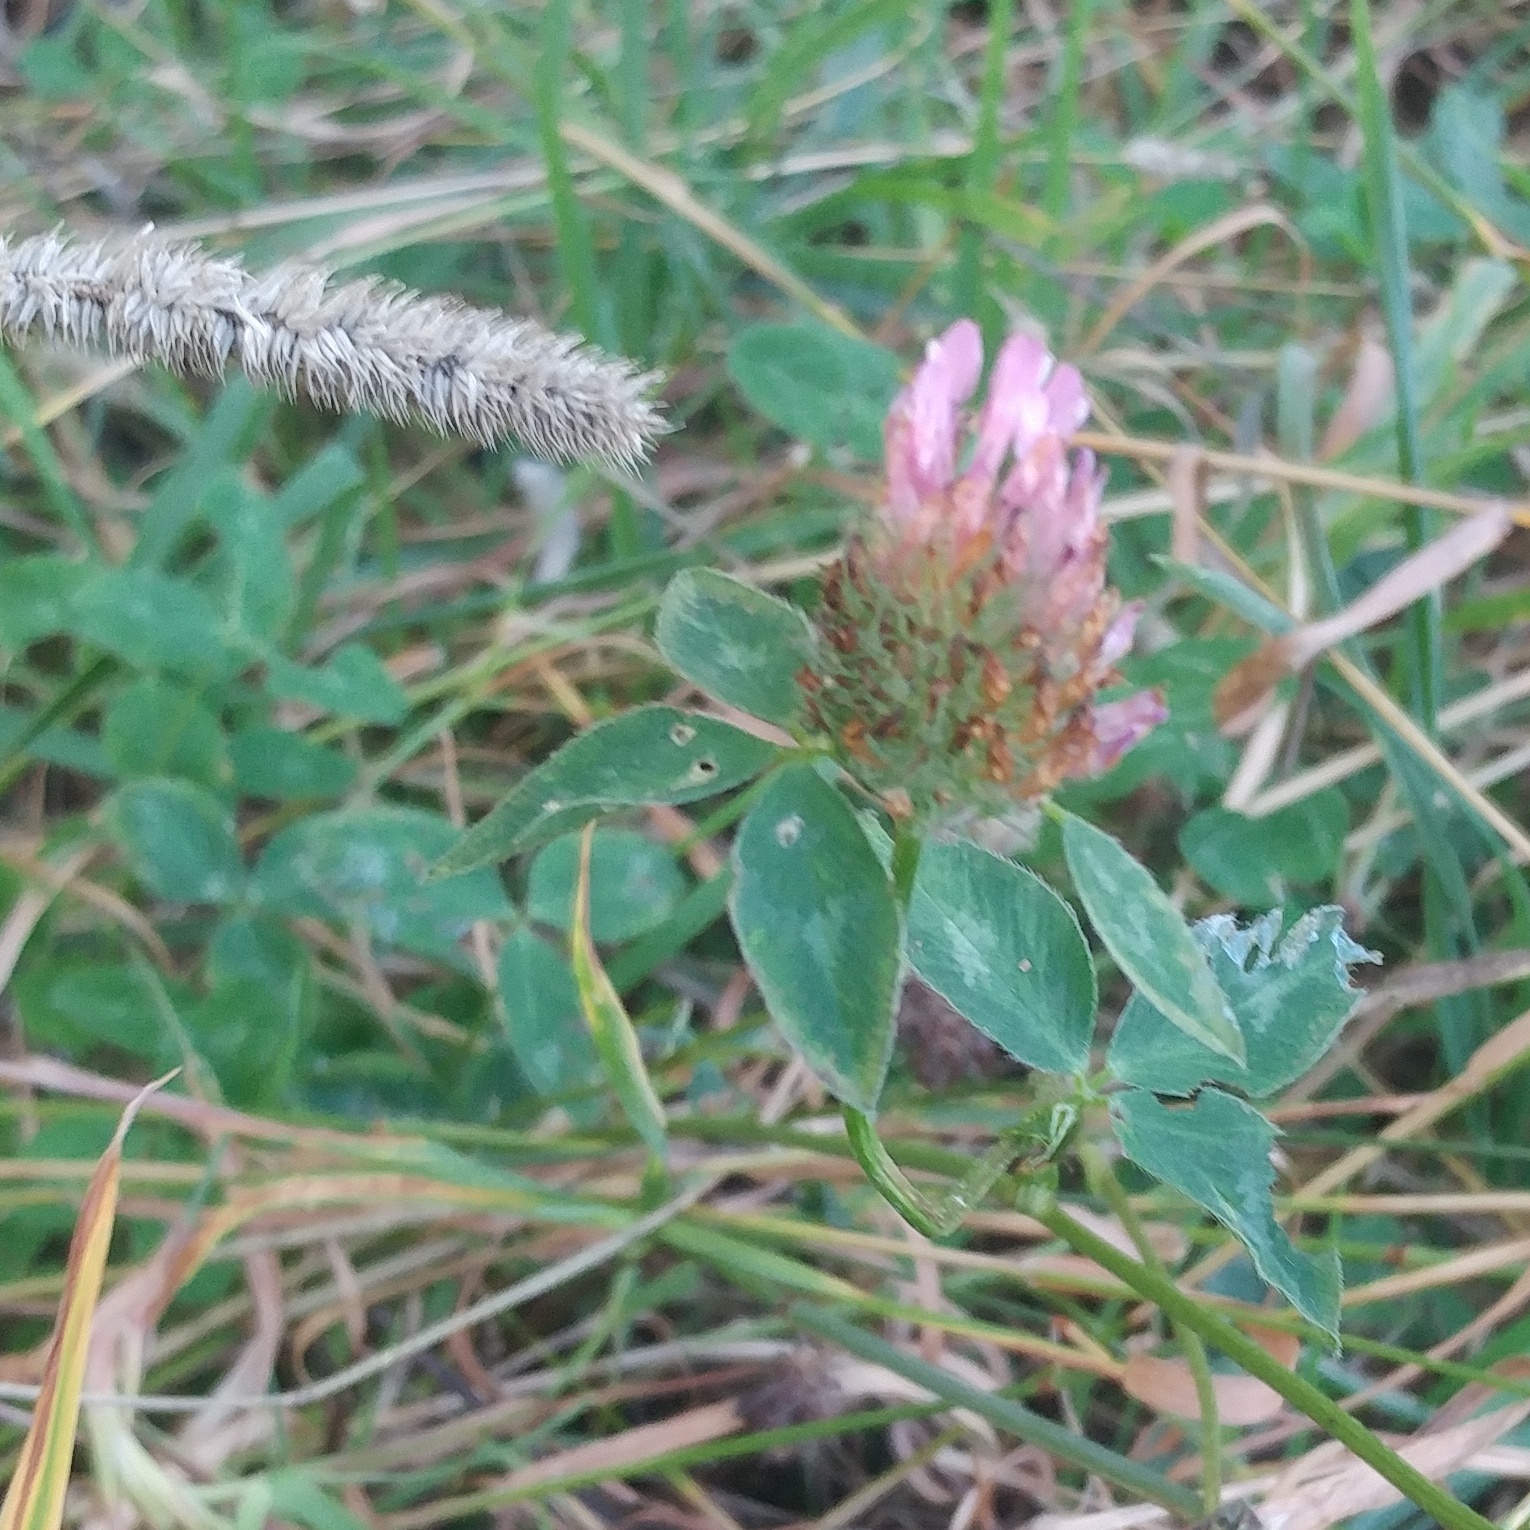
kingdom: Plantae
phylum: Tracheophyta
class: Magnoliopsida
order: Fabales
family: Fabaceae
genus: Trifolium
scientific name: Trifolium pratense
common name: Red clover
